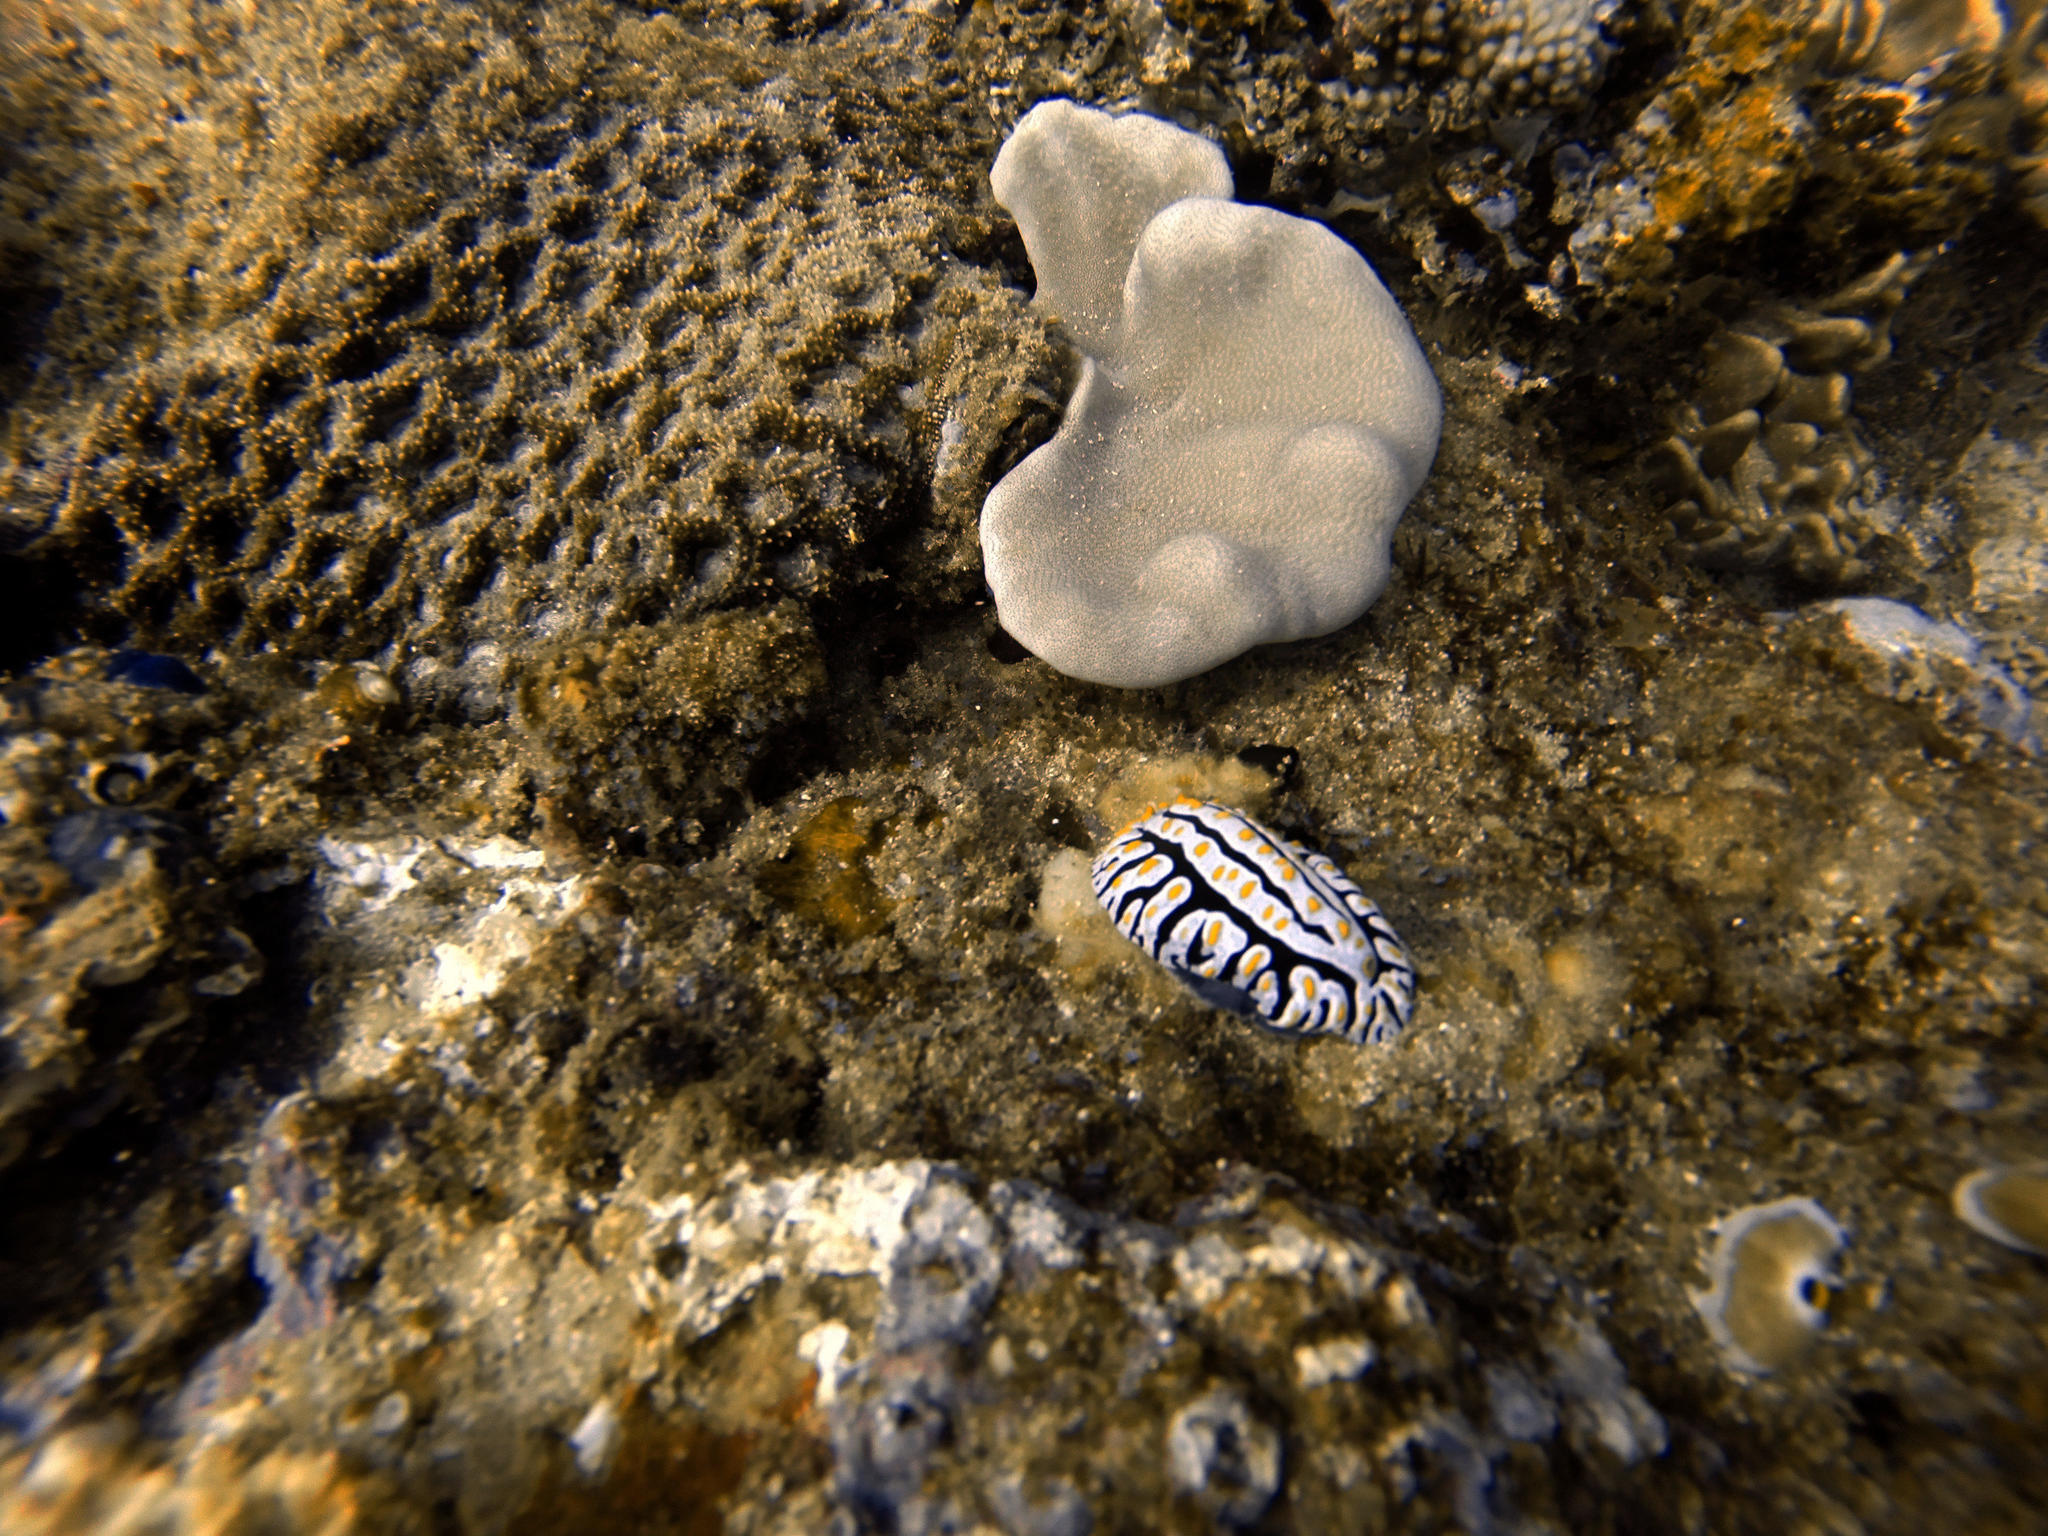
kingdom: Animalia
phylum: Mollusca
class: Gastropoda
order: Nudibranchia
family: Phyllidiidae
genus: Phyllidia
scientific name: Phyllidia varicosa
